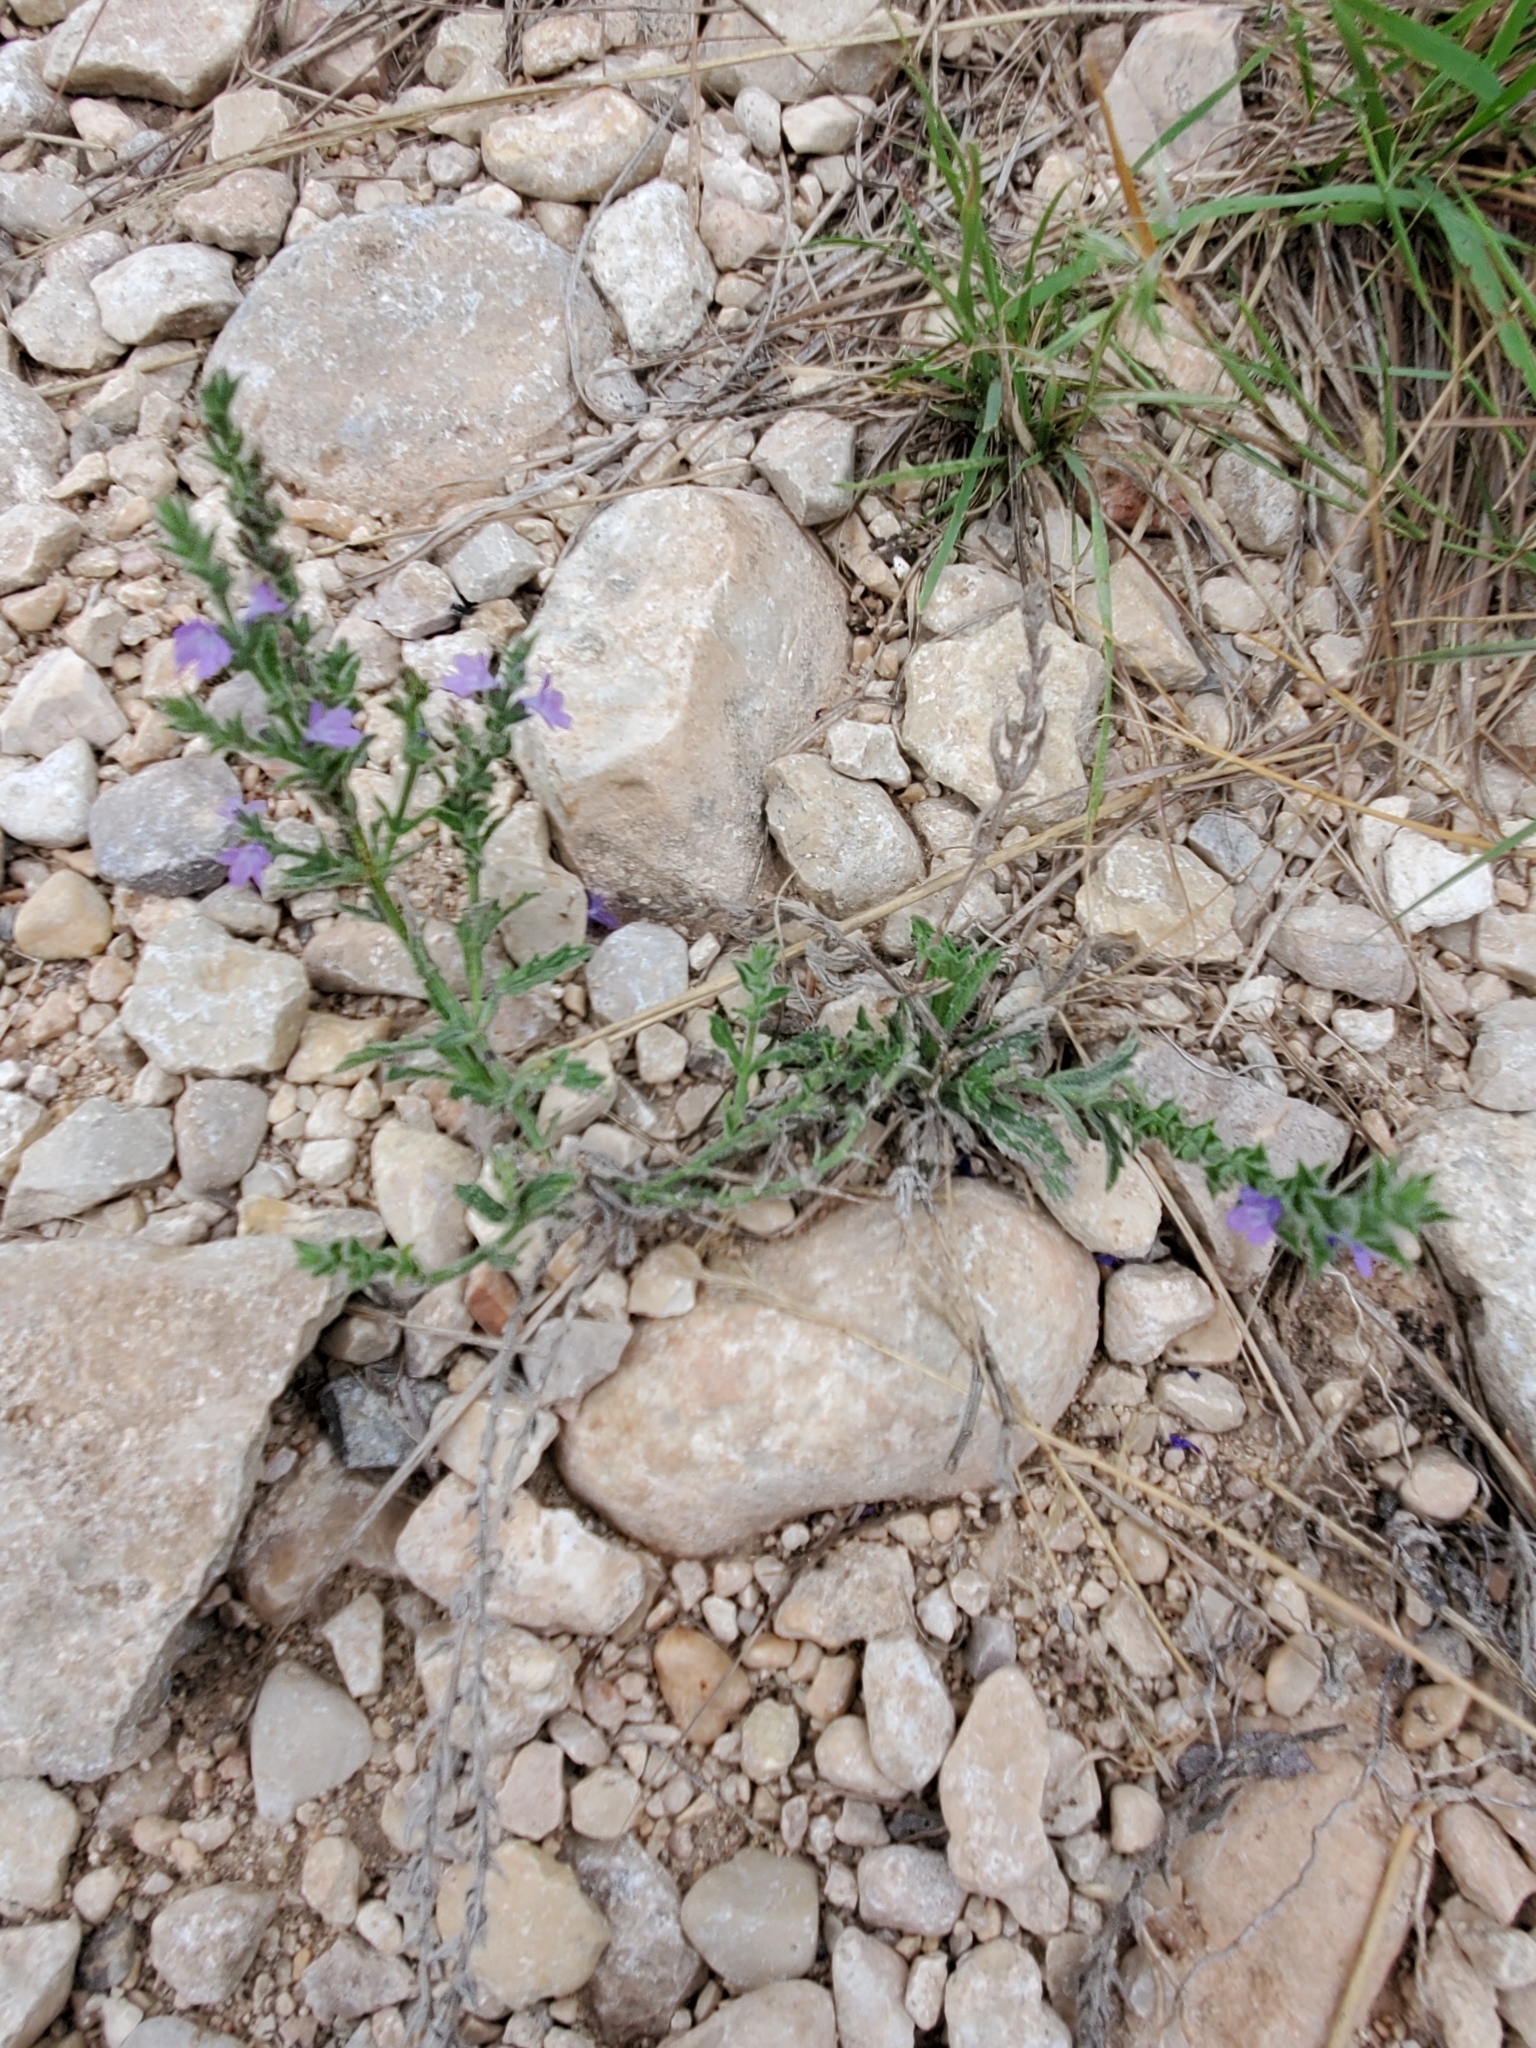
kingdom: Plantae
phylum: Tracheophyta
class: Magnoliopsida
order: Lamiales
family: Verbenaceae
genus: Verbena
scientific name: Verbena canescens
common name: Gray vervain
